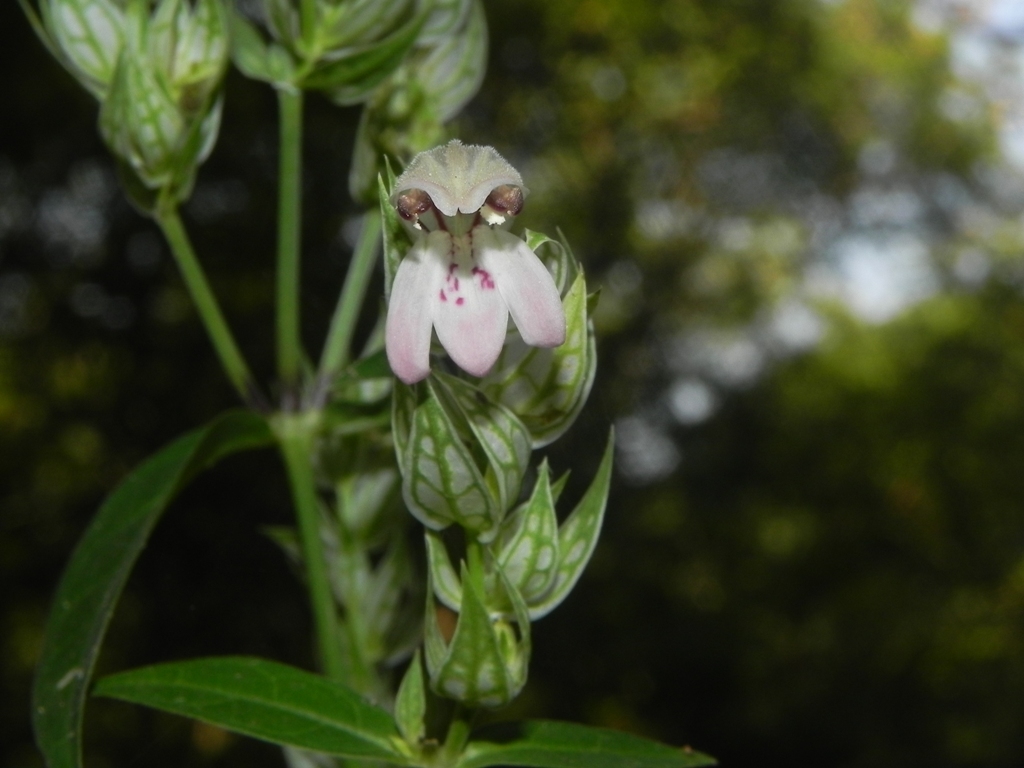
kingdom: Plantae
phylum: Tracheophyta
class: Magnoliopsida
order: Lamiales
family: Acanthaceae
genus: Justicia
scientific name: Justicia betonica
